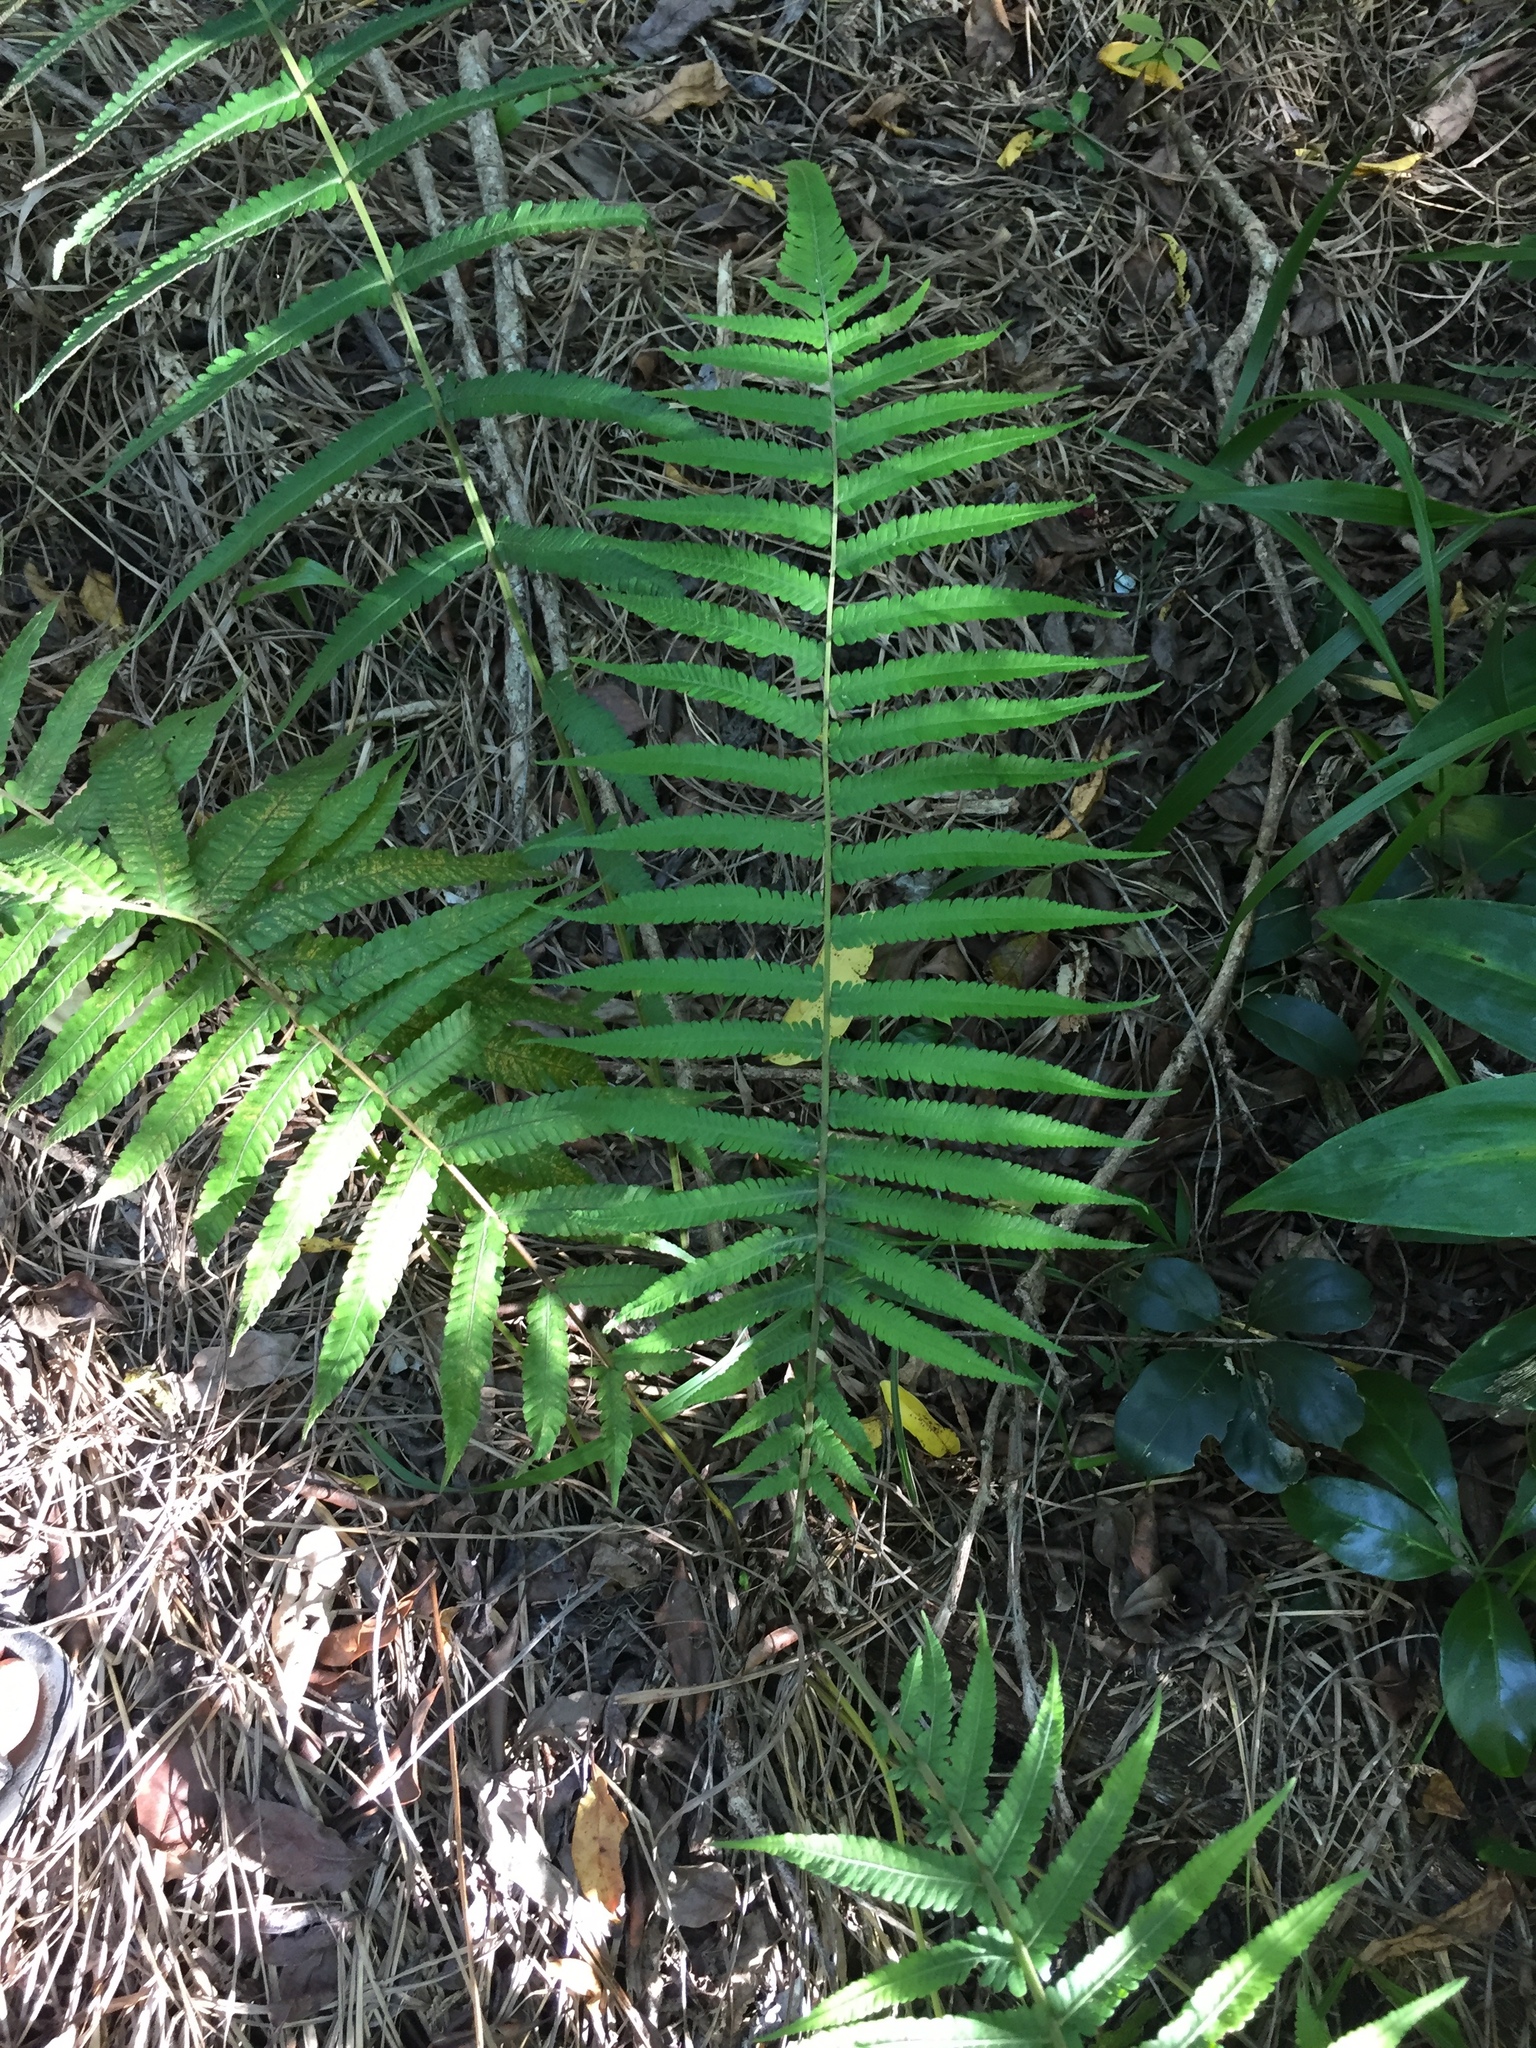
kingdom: Plantae
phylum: Tracheophyta
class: Polypodiopsida
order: Polypodiales
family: Thelypteridaceae
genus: Christella
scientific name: Christella dentata
